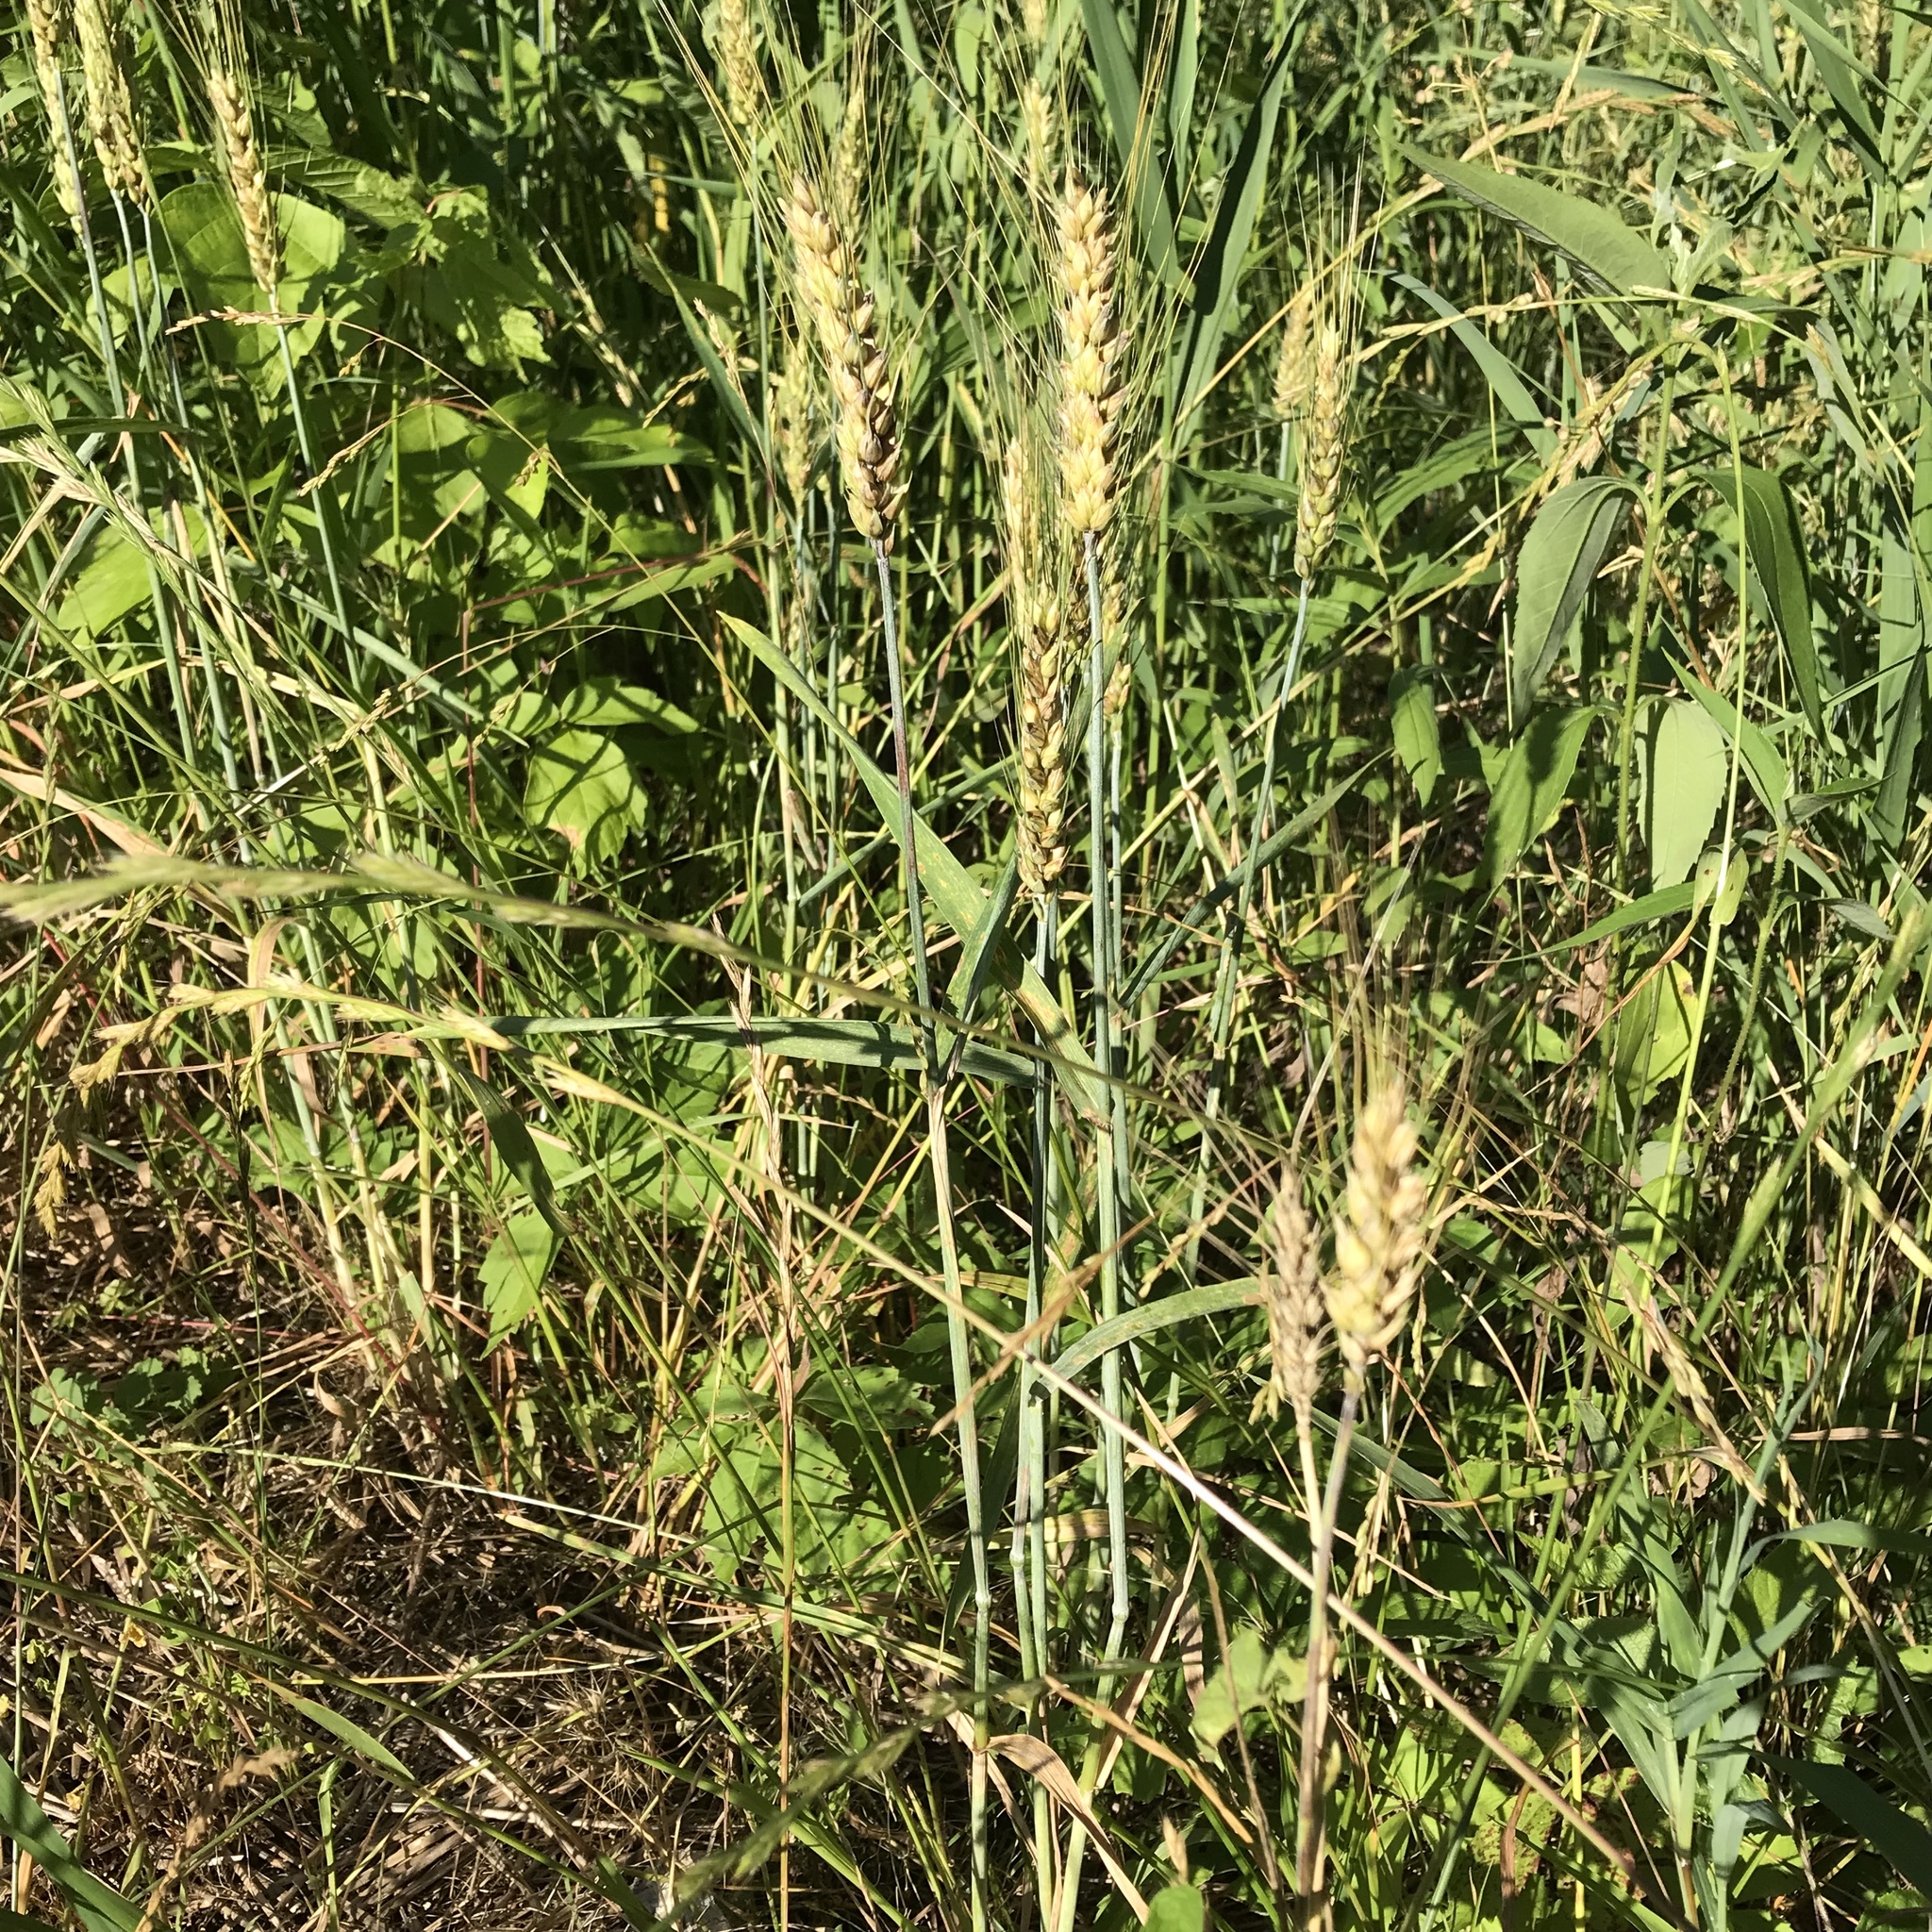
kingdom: Plantae
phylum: Tracheophyta
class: Liliopsida
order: Poales
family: Poaceae
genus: Triticum
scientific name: Triticum aestivum
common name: Common wheat
